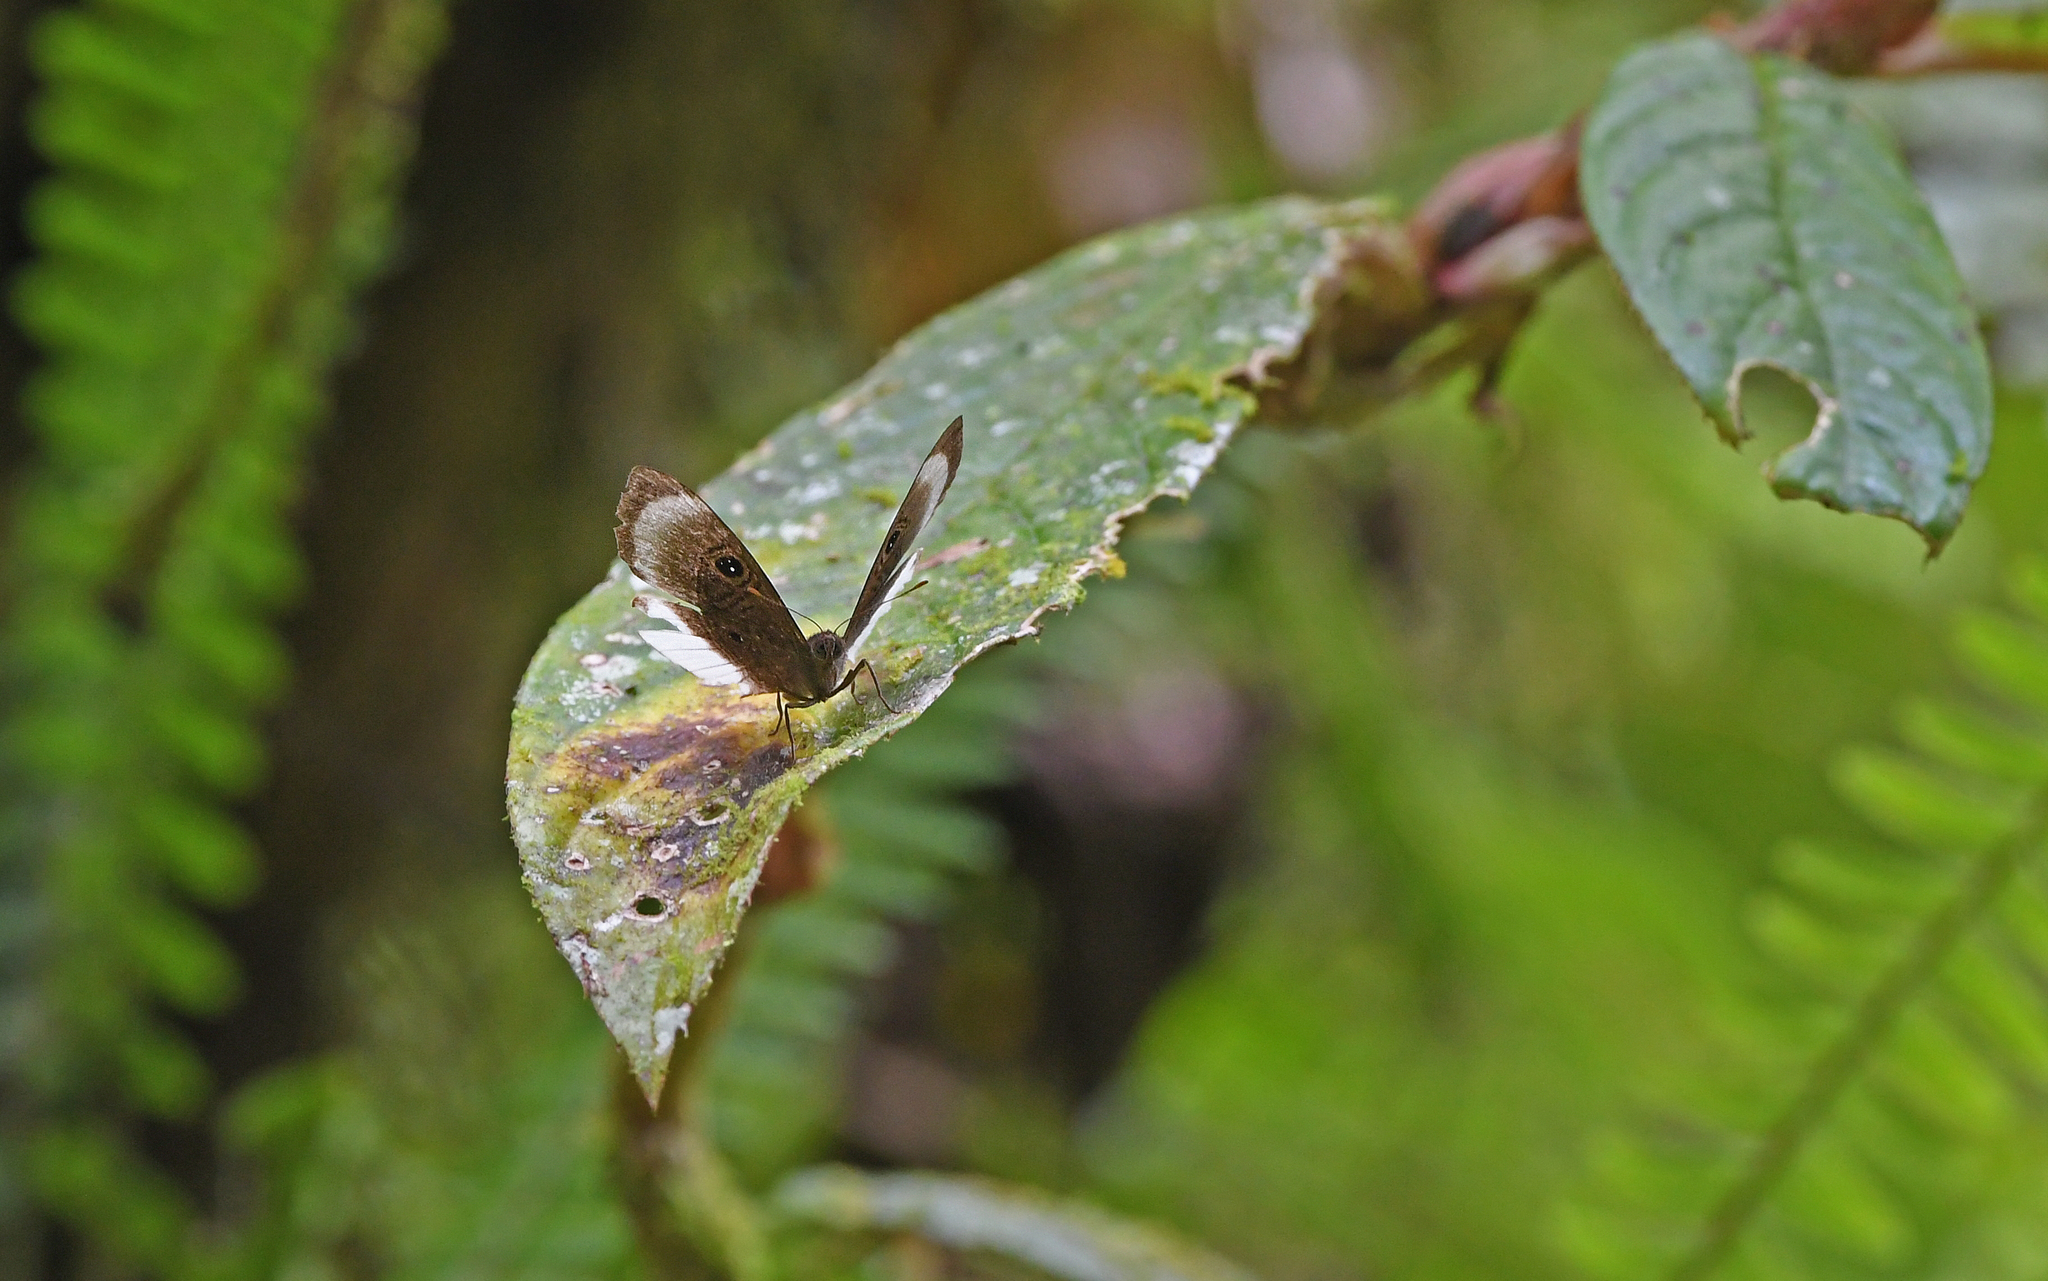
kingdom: Animalia
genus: Mesosemia
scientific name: Mesosemia ahava
